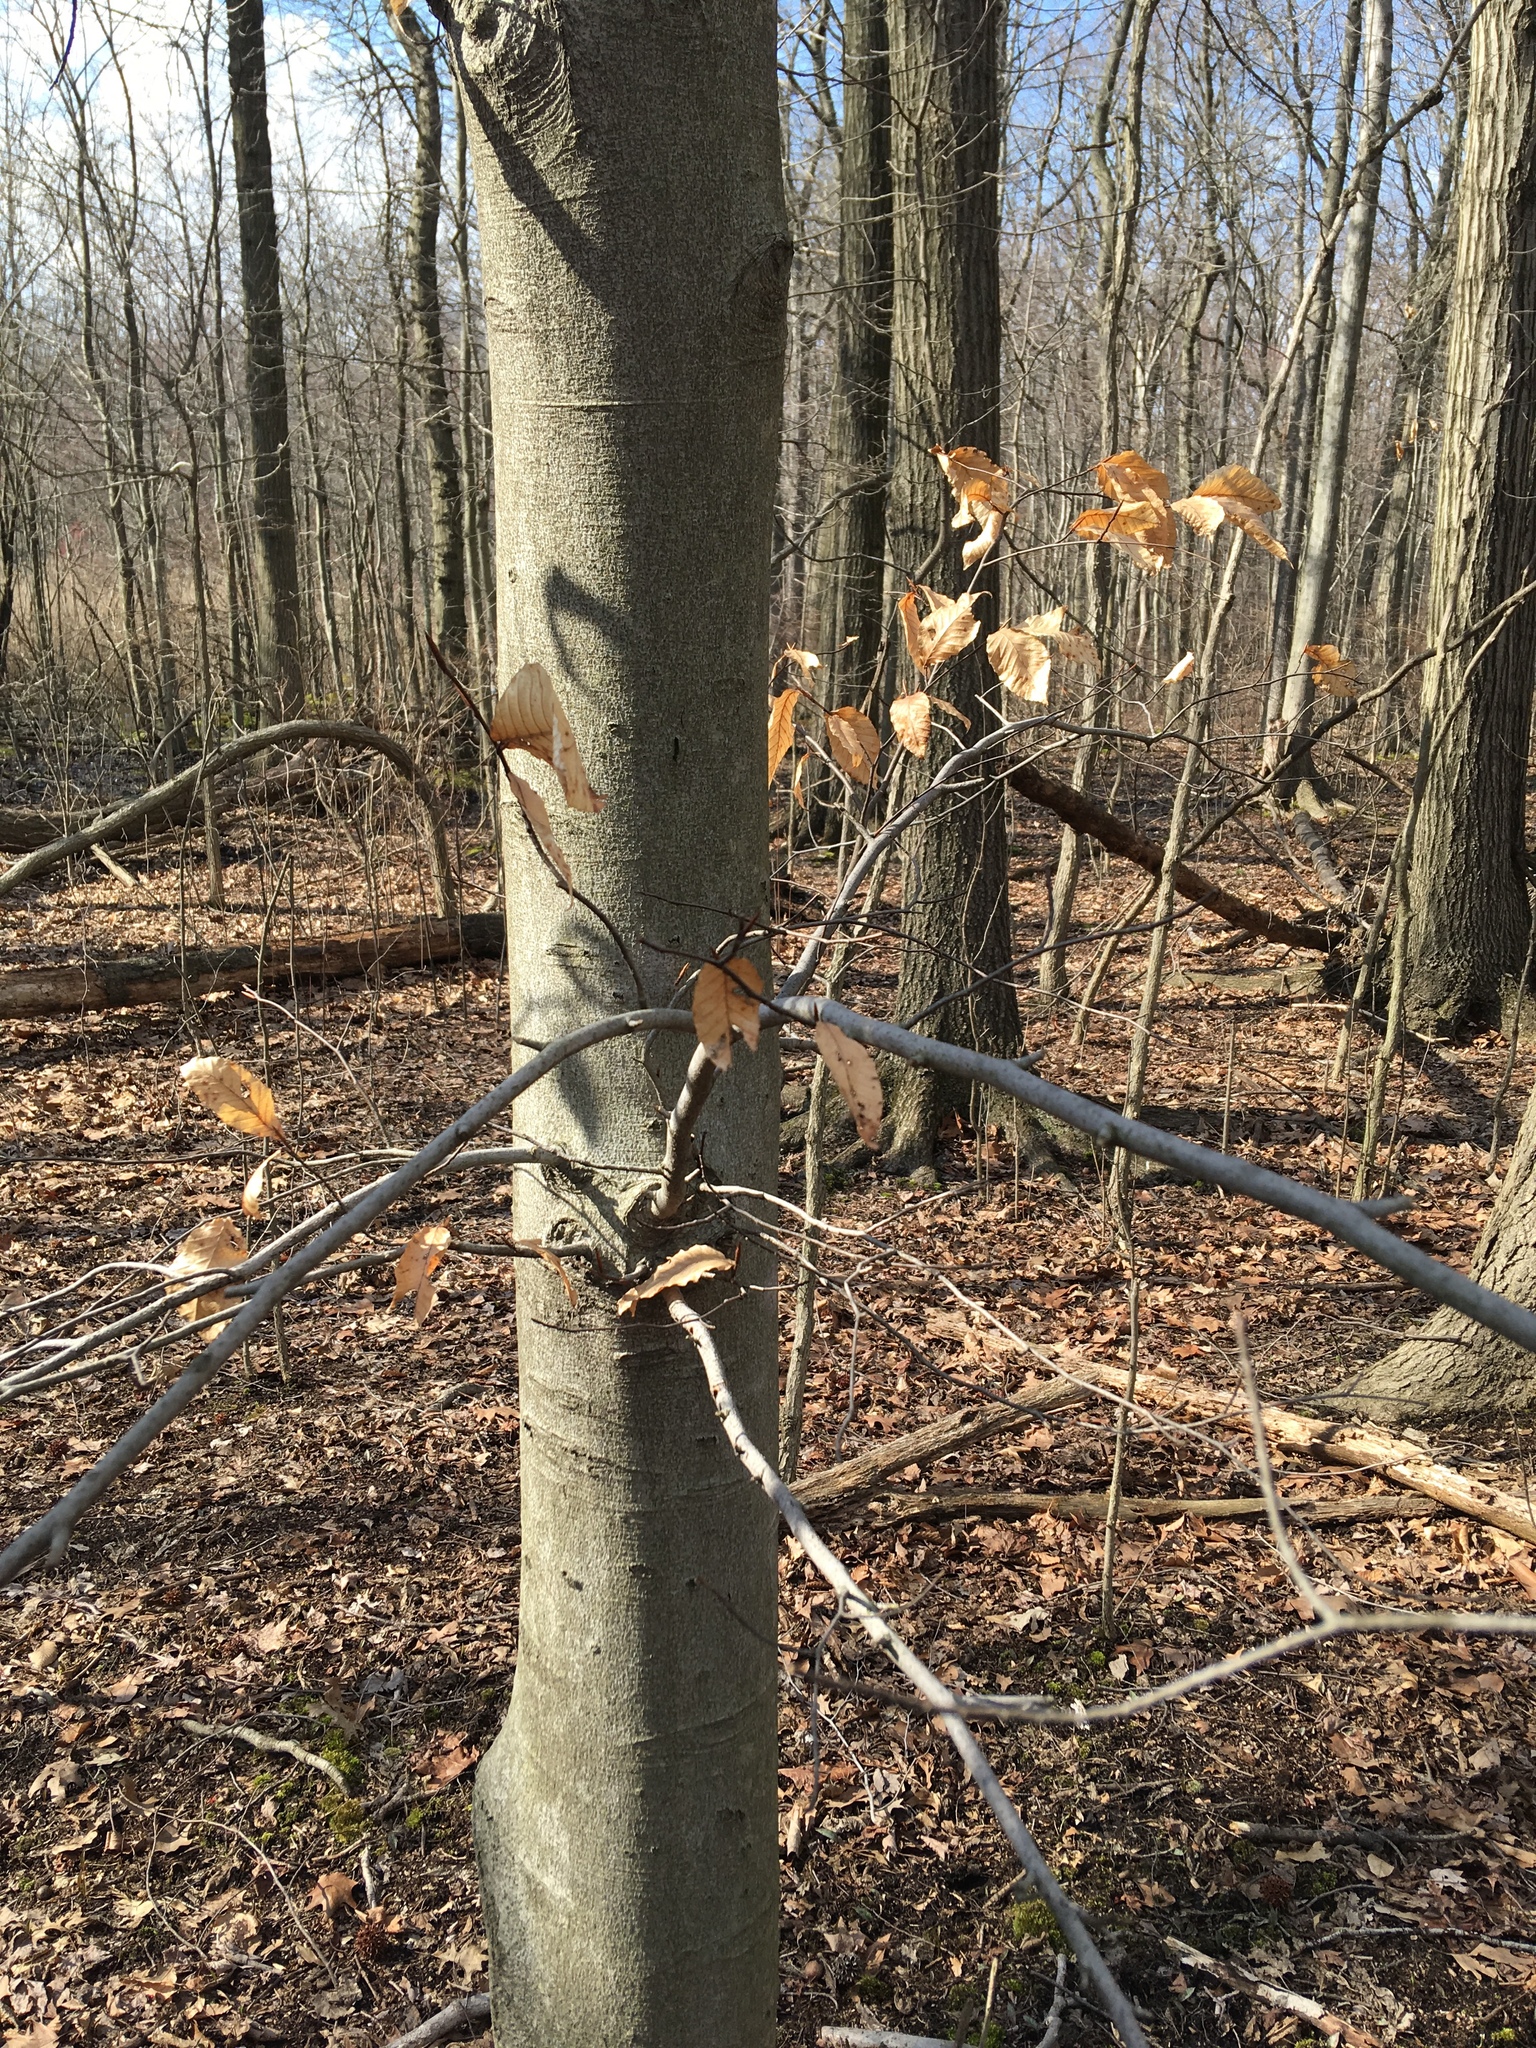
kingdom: Plantae
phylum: Tracheophyta
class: Magnoliopsida
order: Fagales
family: Fagaceae
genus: Fagus
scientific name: Fagus grandifolia
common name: American beech
